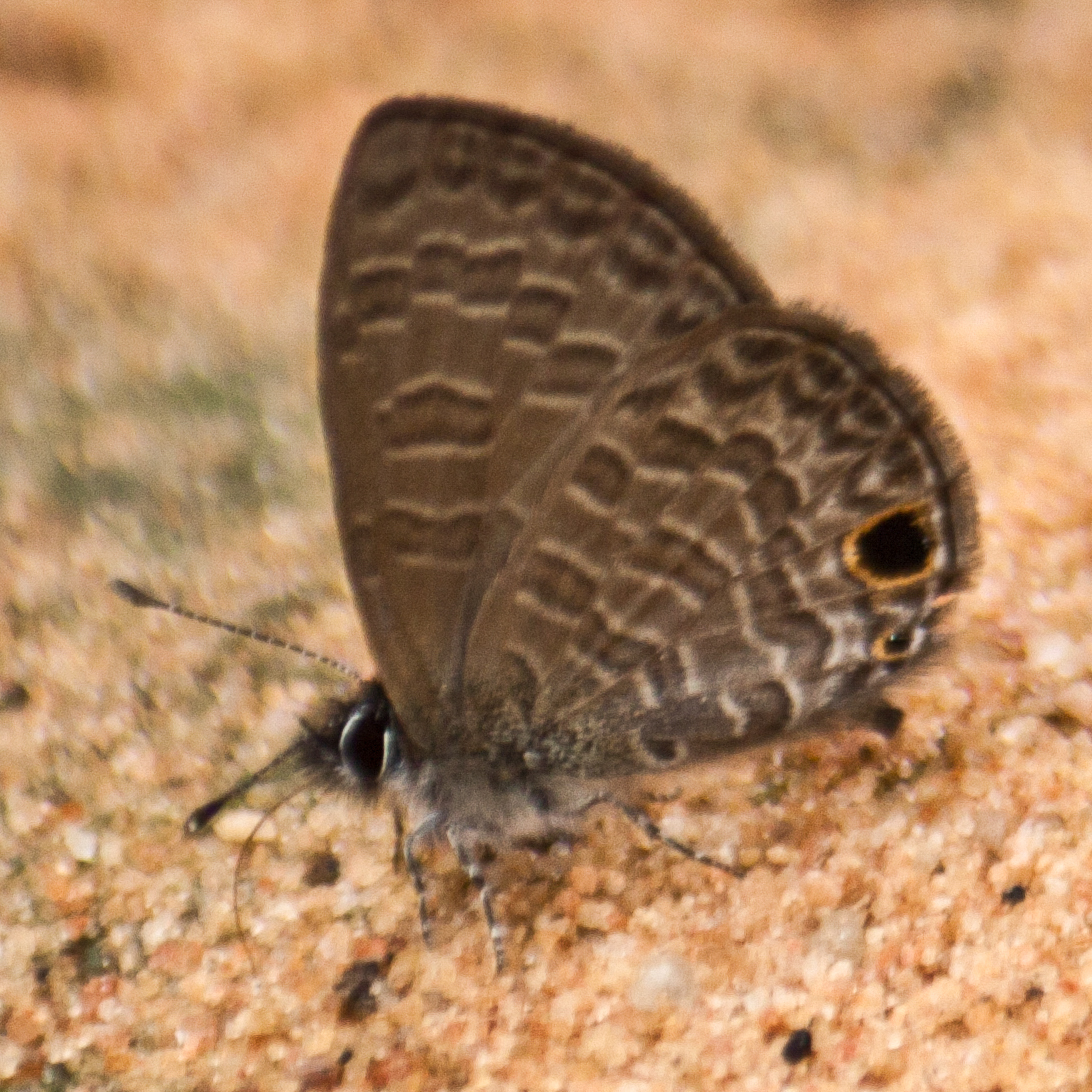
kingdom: Animalia
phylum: Arthropoda
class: Insecta
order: Lepidoptera
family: Lycaenidae
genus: Prosotas
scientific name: Prosotas dubiosa
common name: Tailless lineblue
